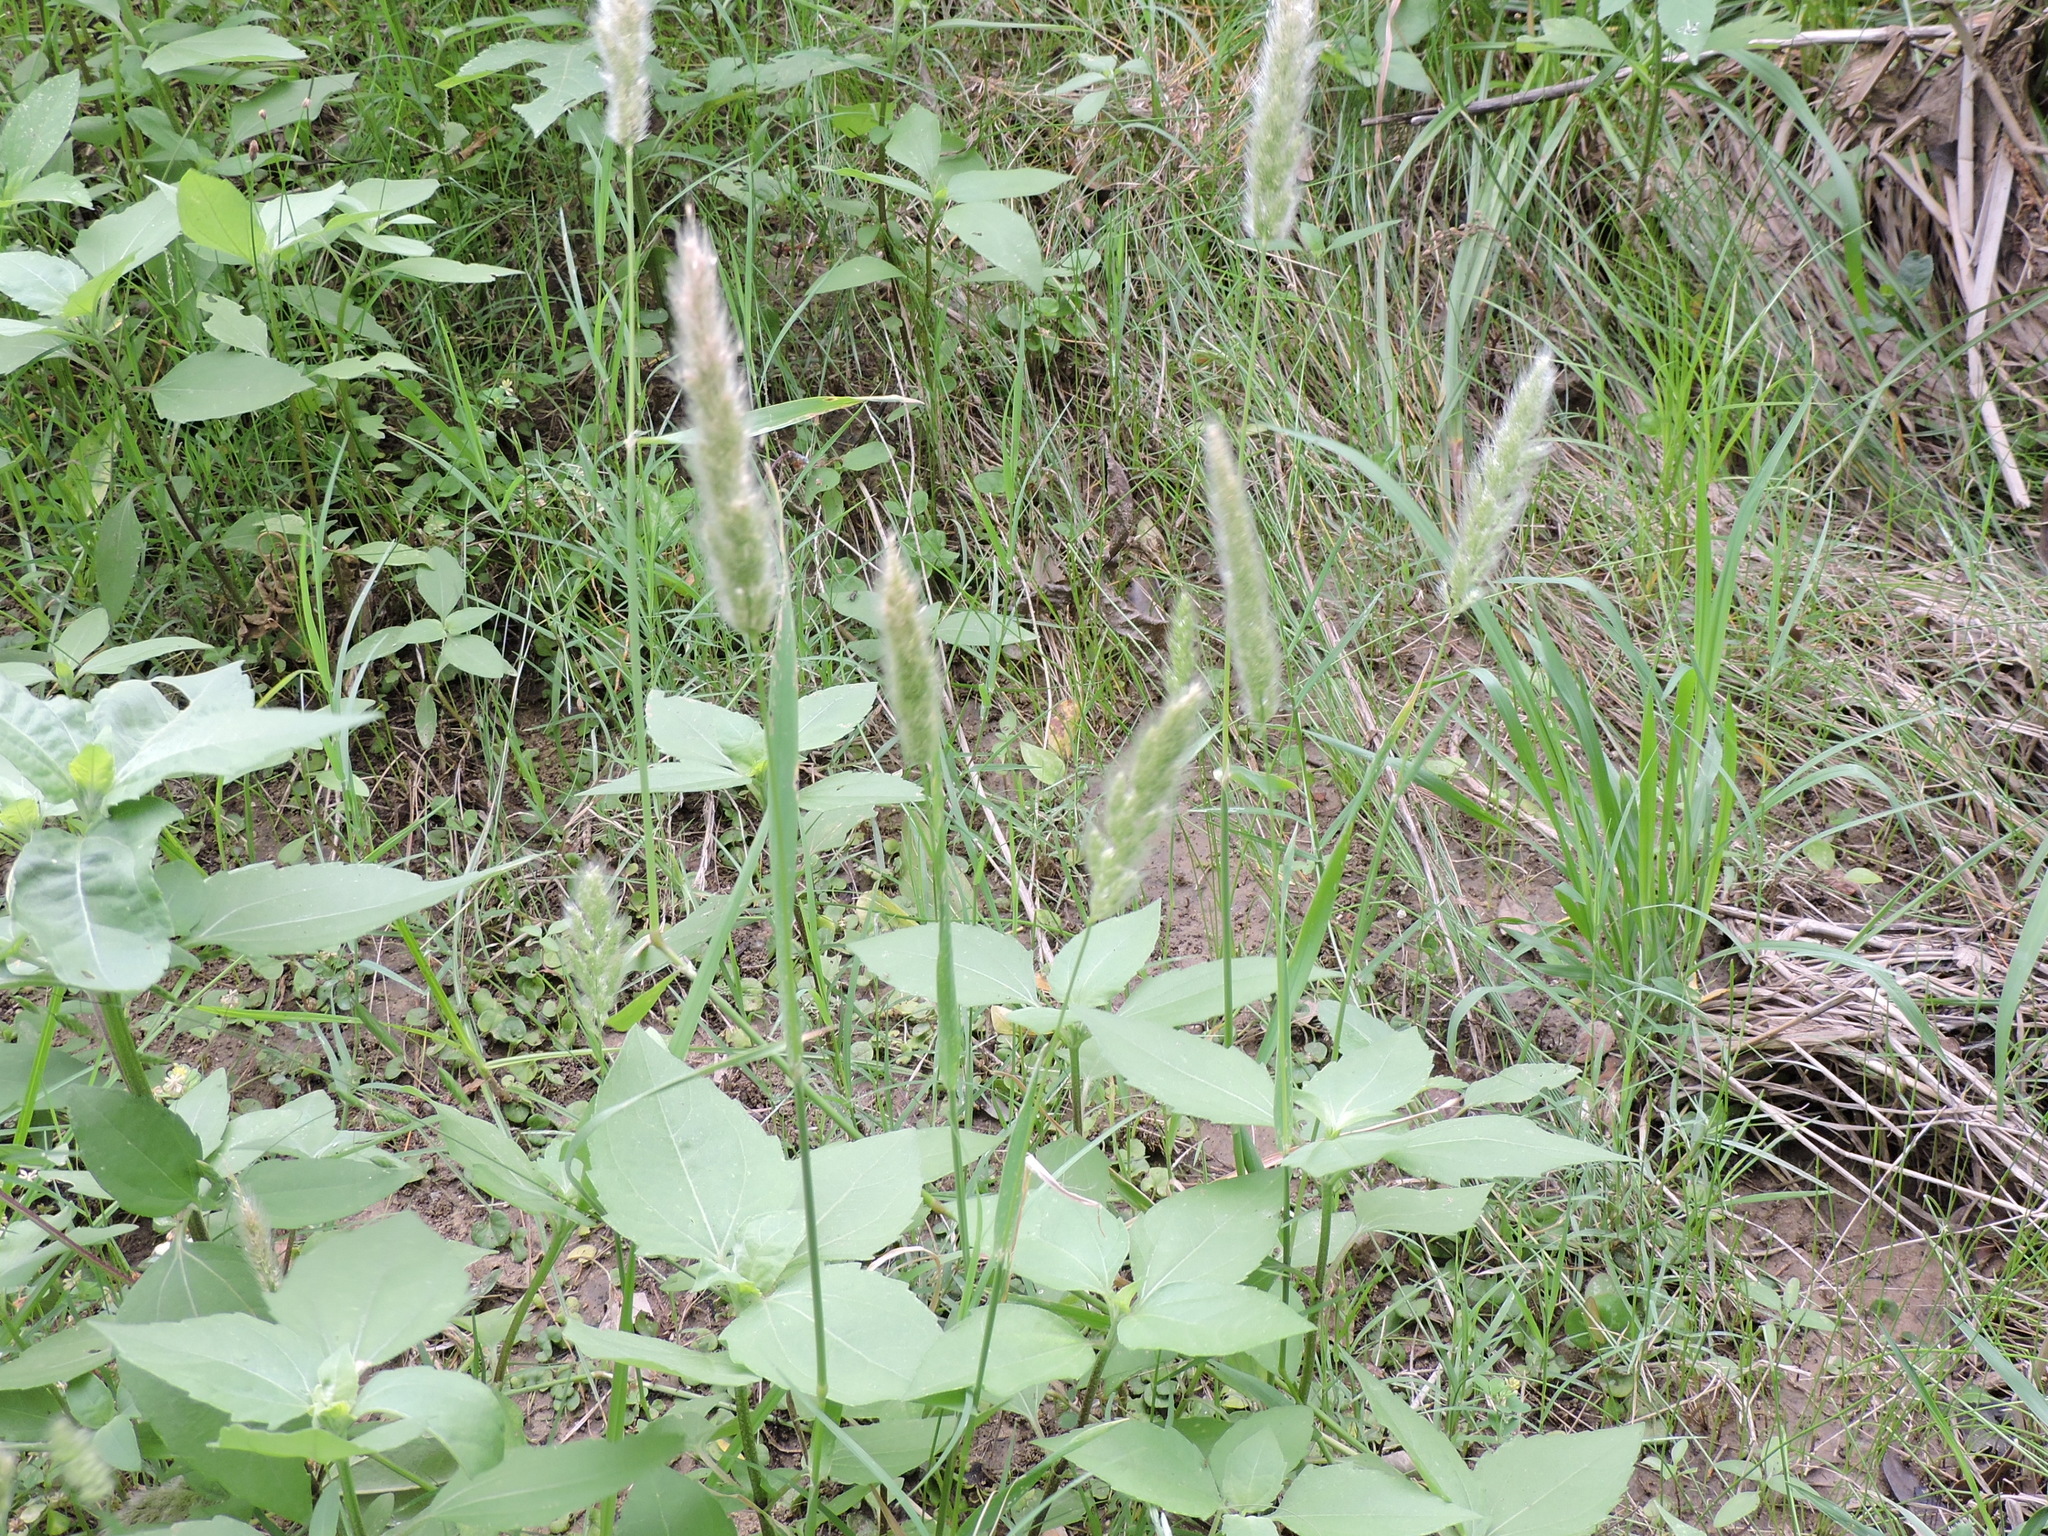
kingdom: Plantae
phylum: Tracheophyta
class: Liliopsida
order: Poales
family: Poaceae
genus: Polypogon
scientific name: Polypogon monspeliensis
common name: Annual rabbitsfoot grass
